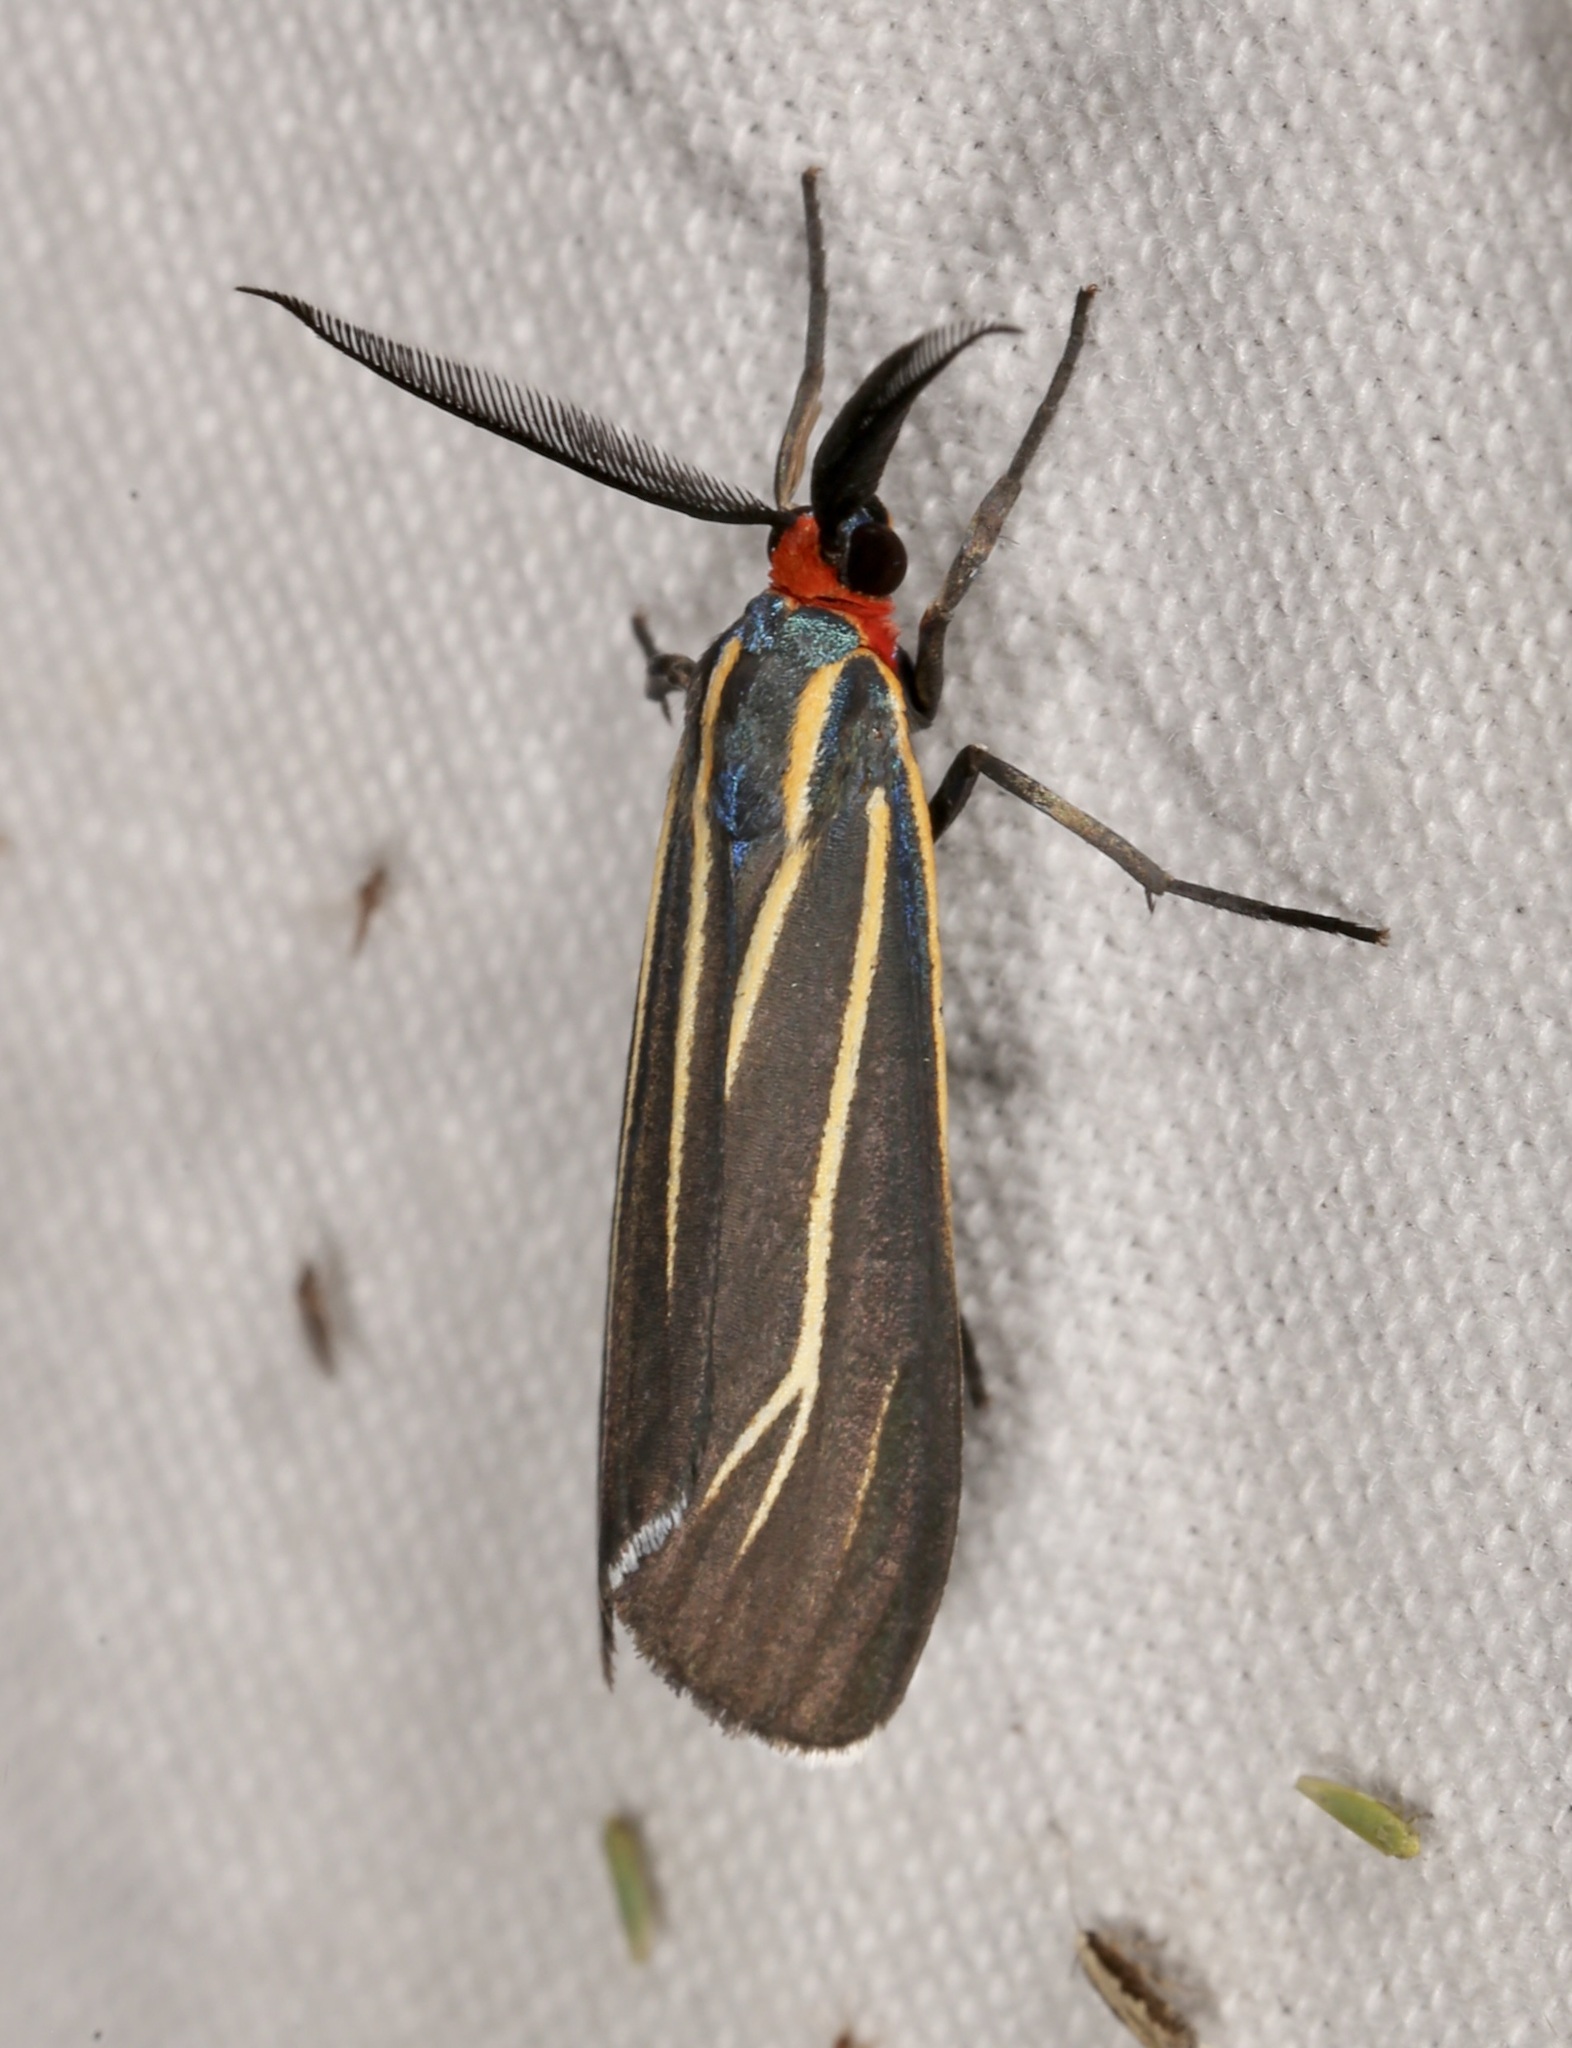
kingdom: Animalia
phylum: Arthropoda
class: Insecta
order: Lepidoptera
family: Erebidae
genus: Ctenucha
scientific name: Ctenucha venosa
